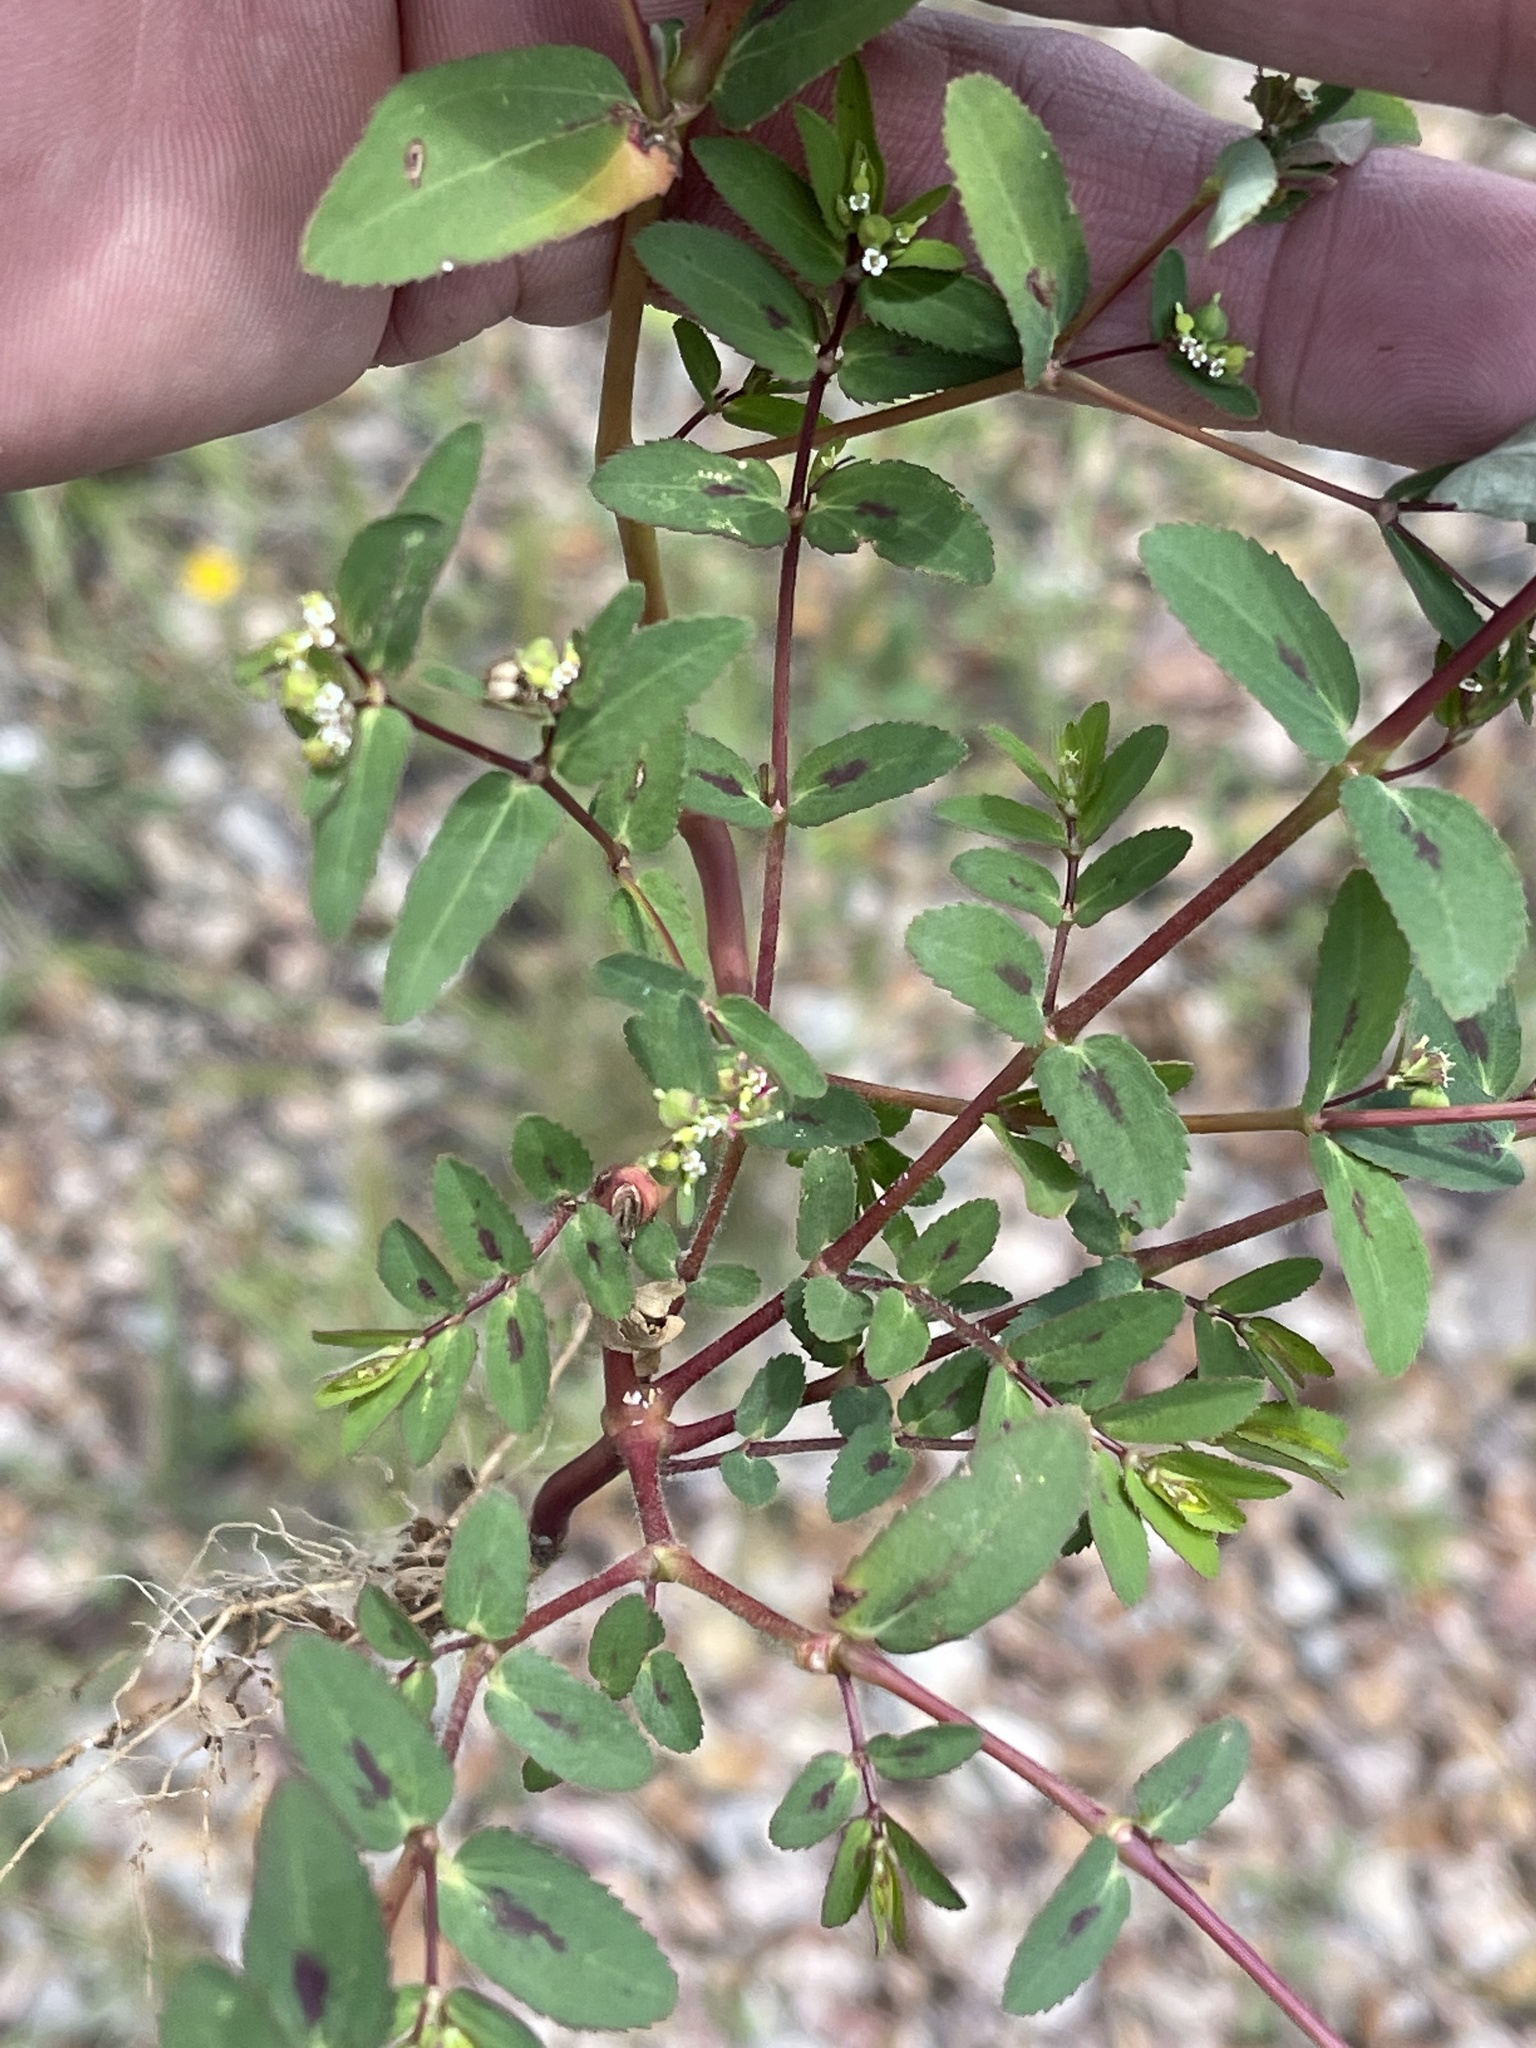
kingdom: Plantae
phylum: Tracheophyta
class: Magnoliopsida
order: Malpighiales
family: Euphorbiaceae
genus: Euphorbia
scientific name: Euphorbia hyssopifolia
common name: Hyssopleaf sandmat
